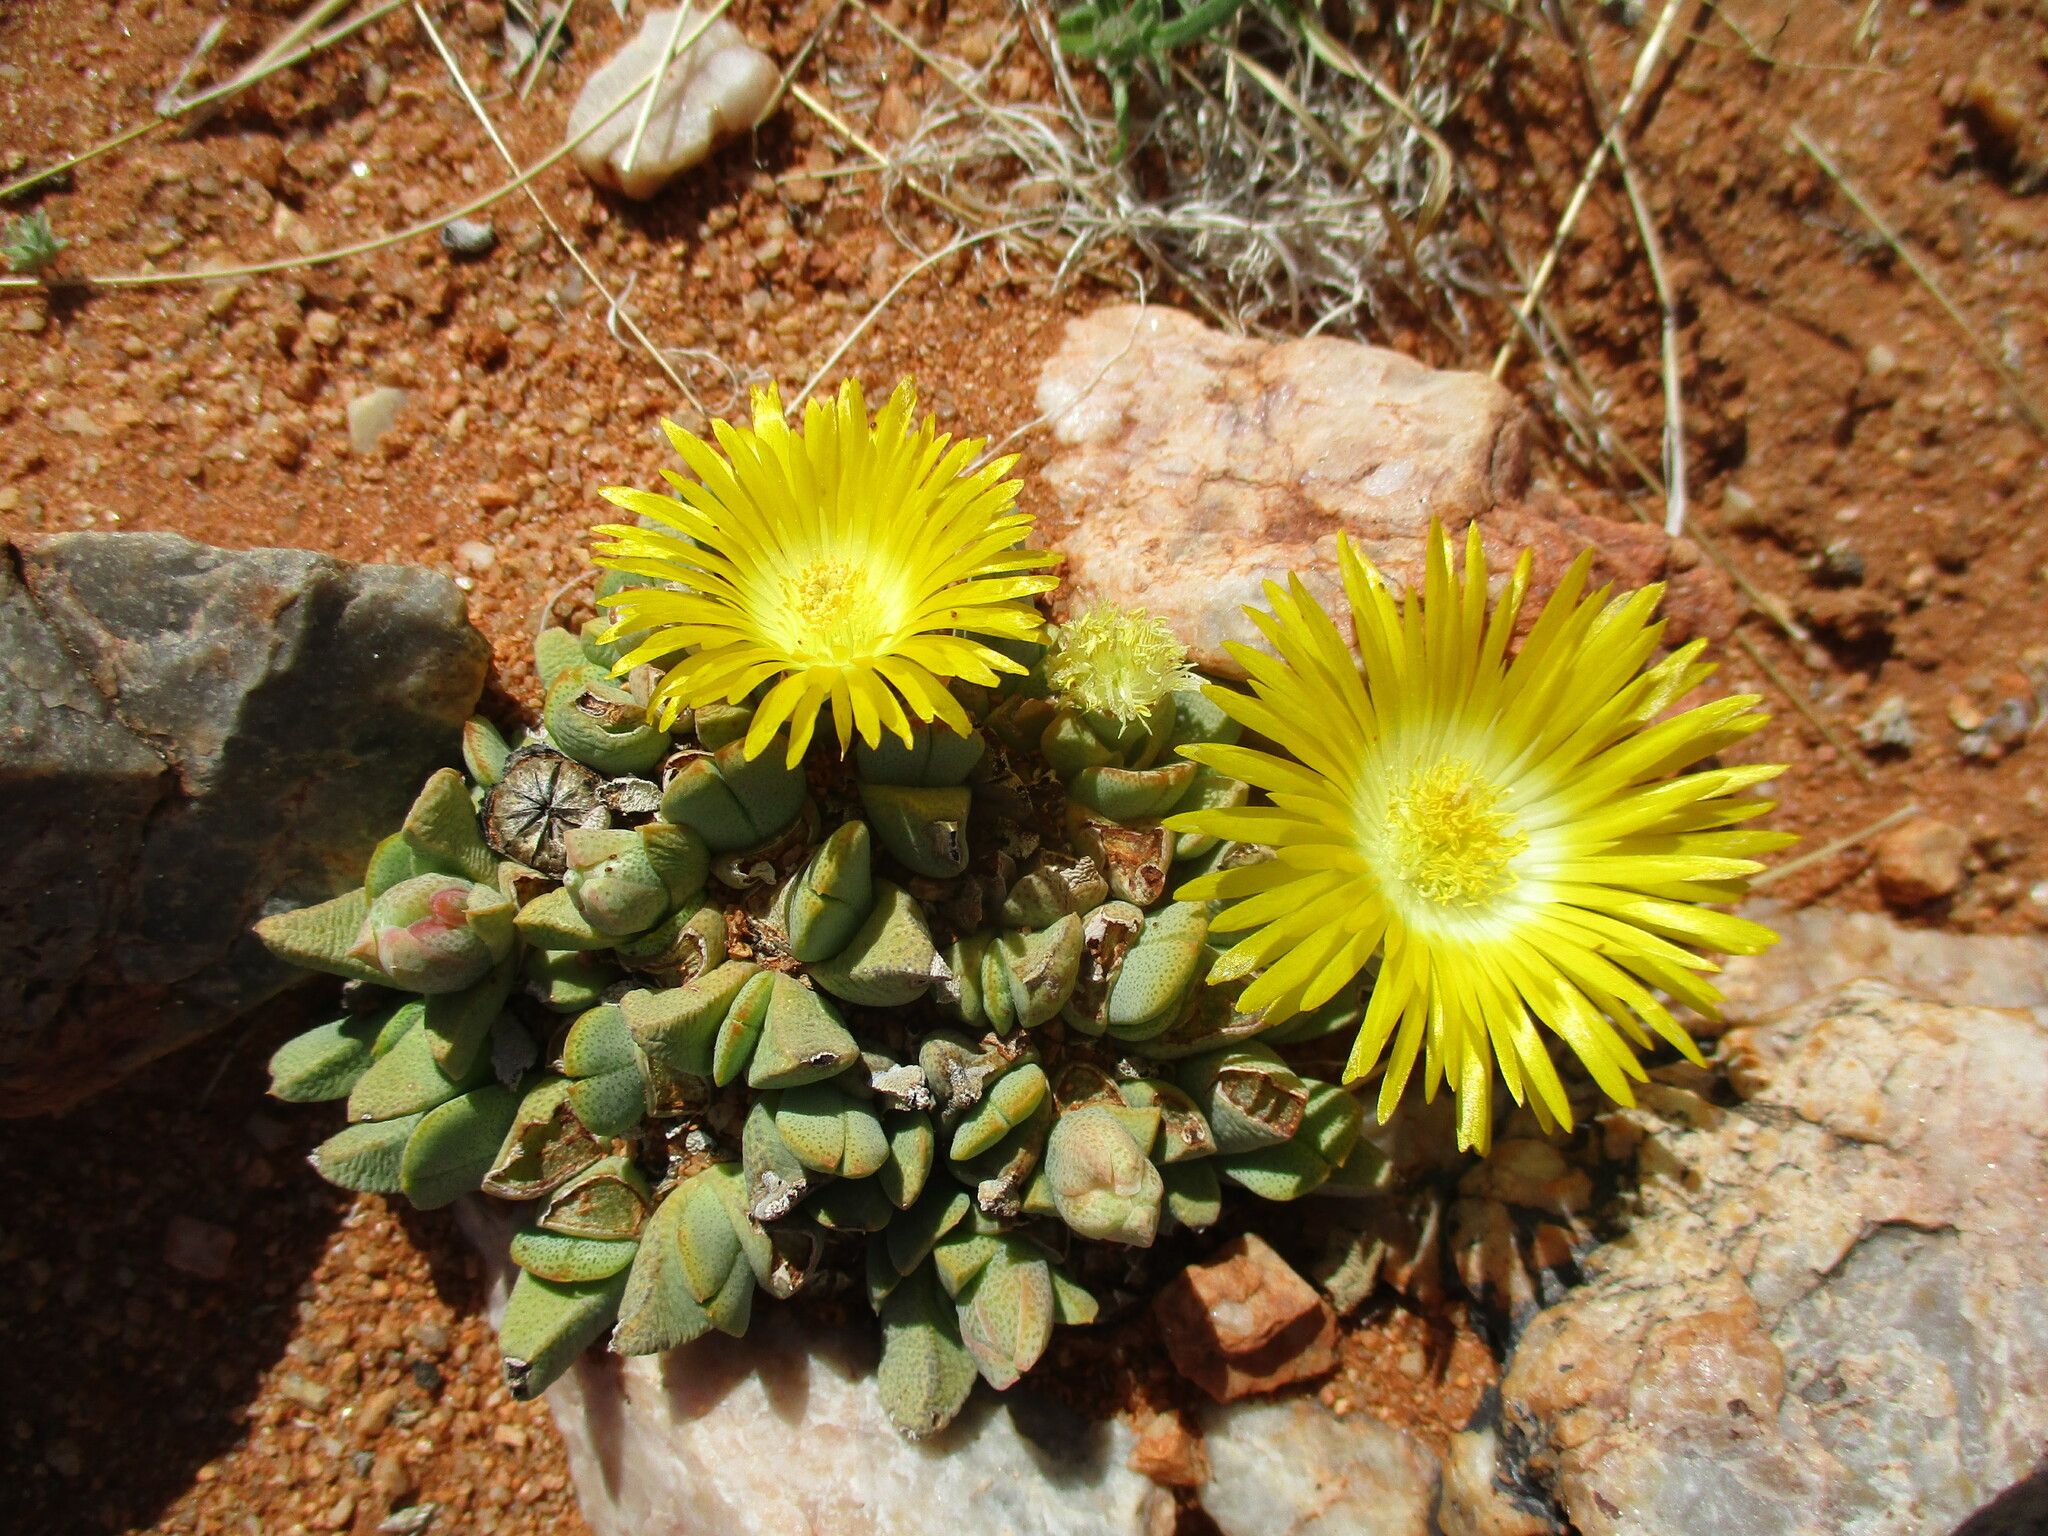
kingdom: Plantae
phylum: Tracheophyta
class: Magnoliopsida
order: Caryophyllales
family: Aizoaceae
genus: Cheiridopsis
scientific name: Cheiridopsis caroli-schmidtii
